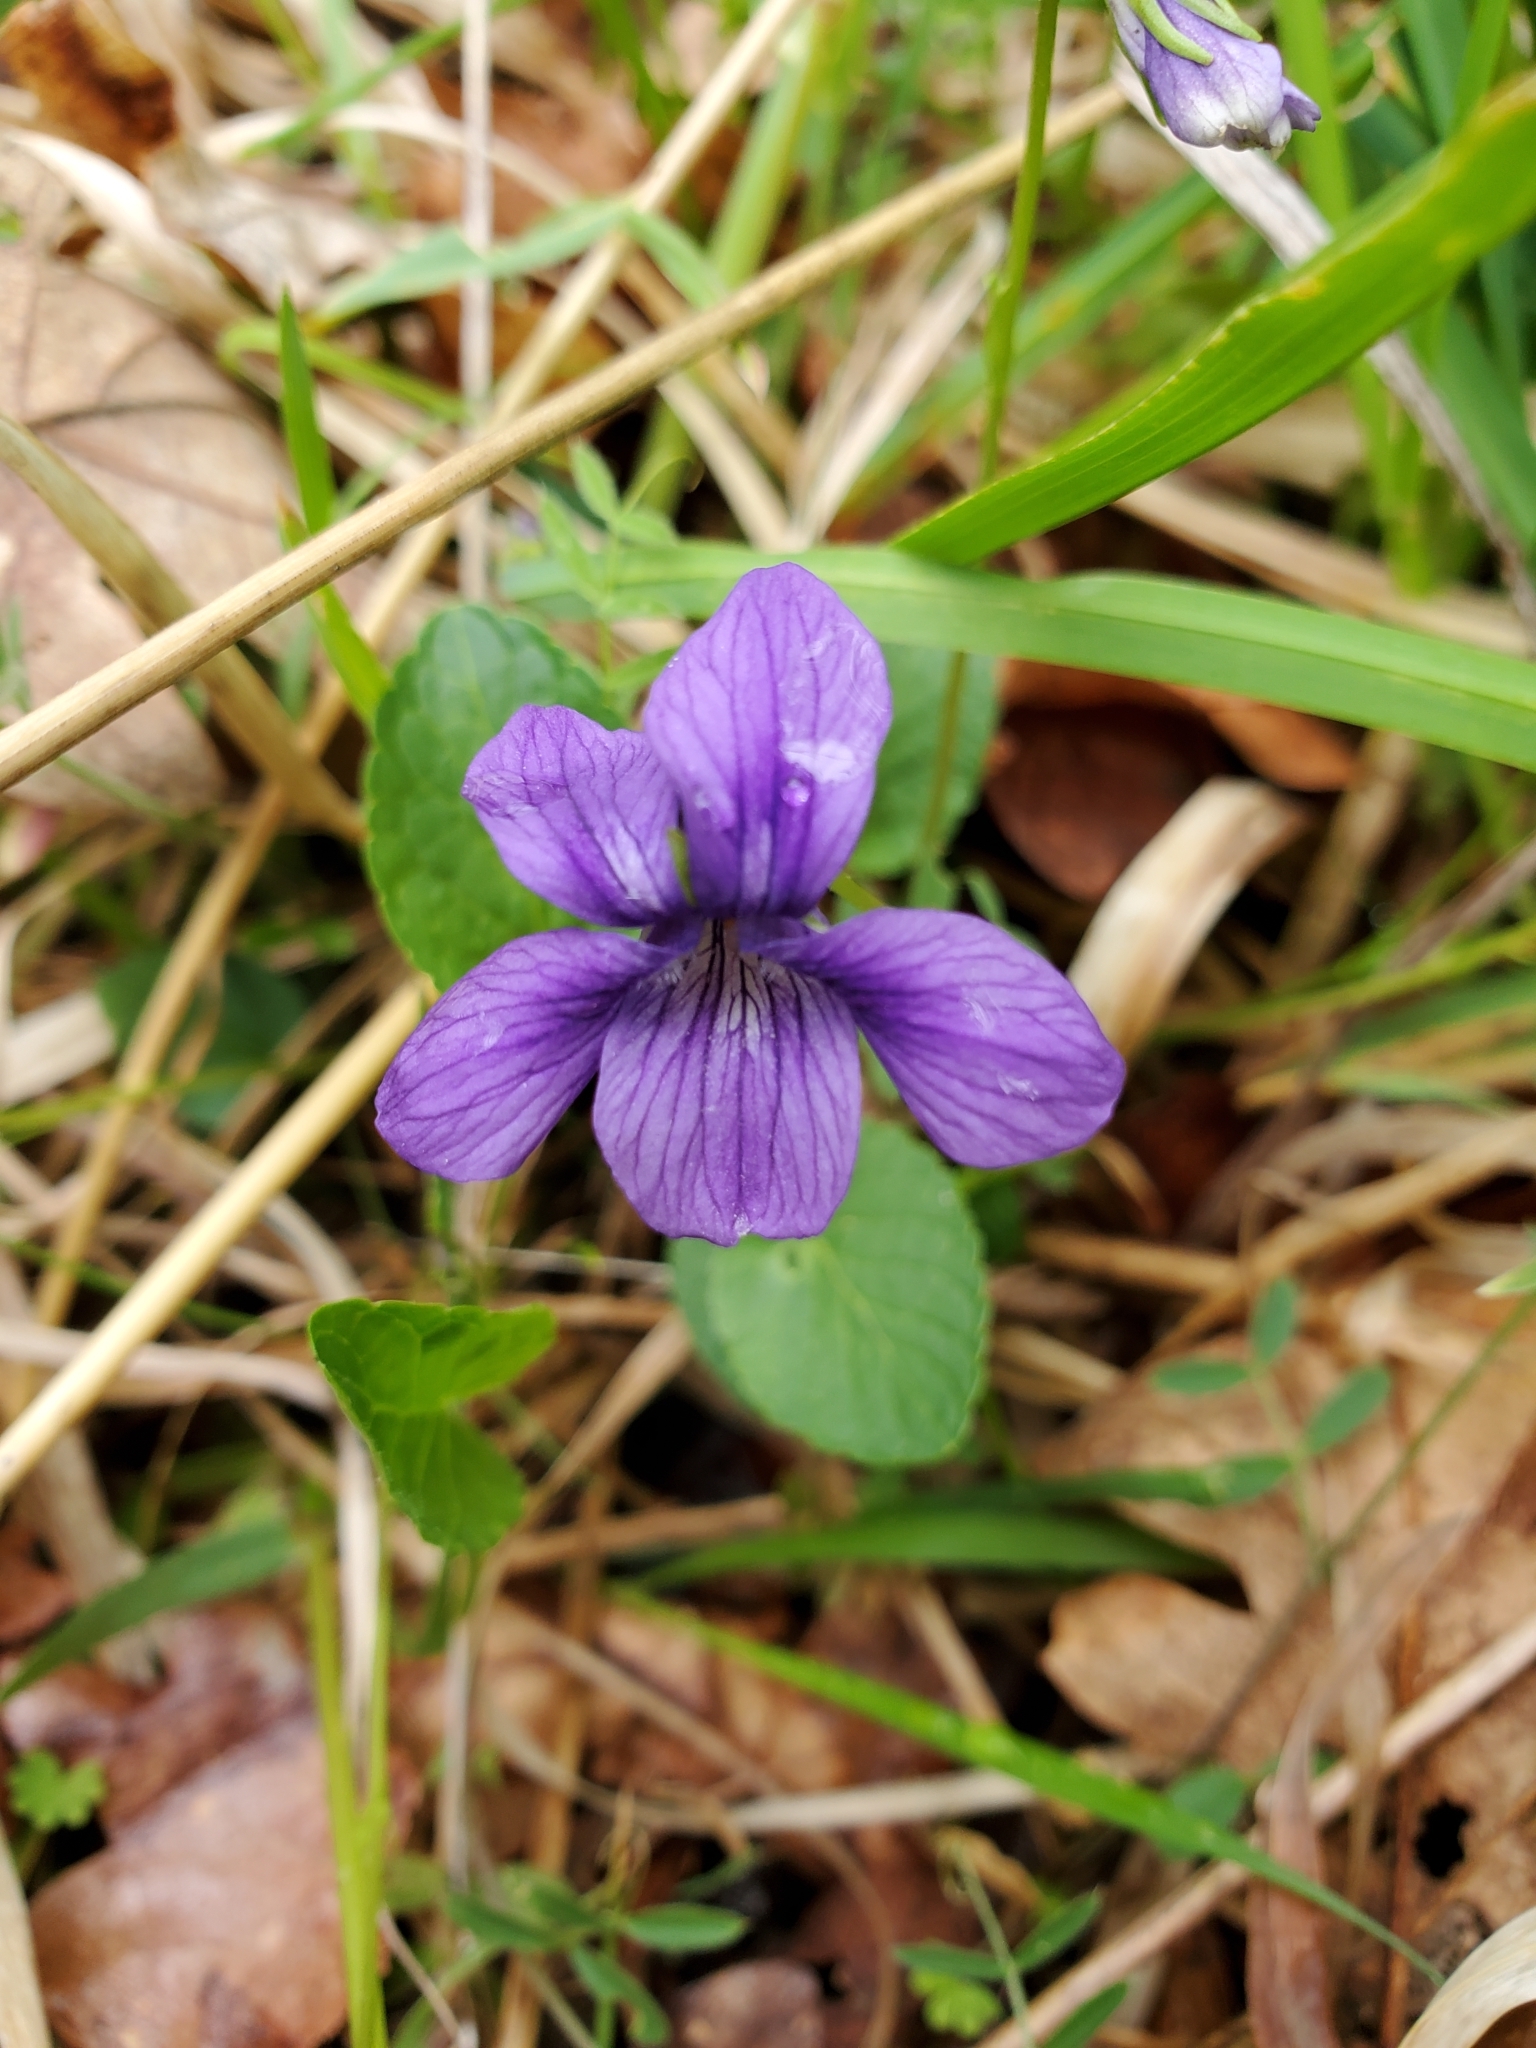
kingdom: Plantae
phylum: Tracheophyta
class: Magnoliopsida
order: Malpighiales
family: Violaceae
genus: Viola
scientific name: Viola adunca
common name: Sand violet
